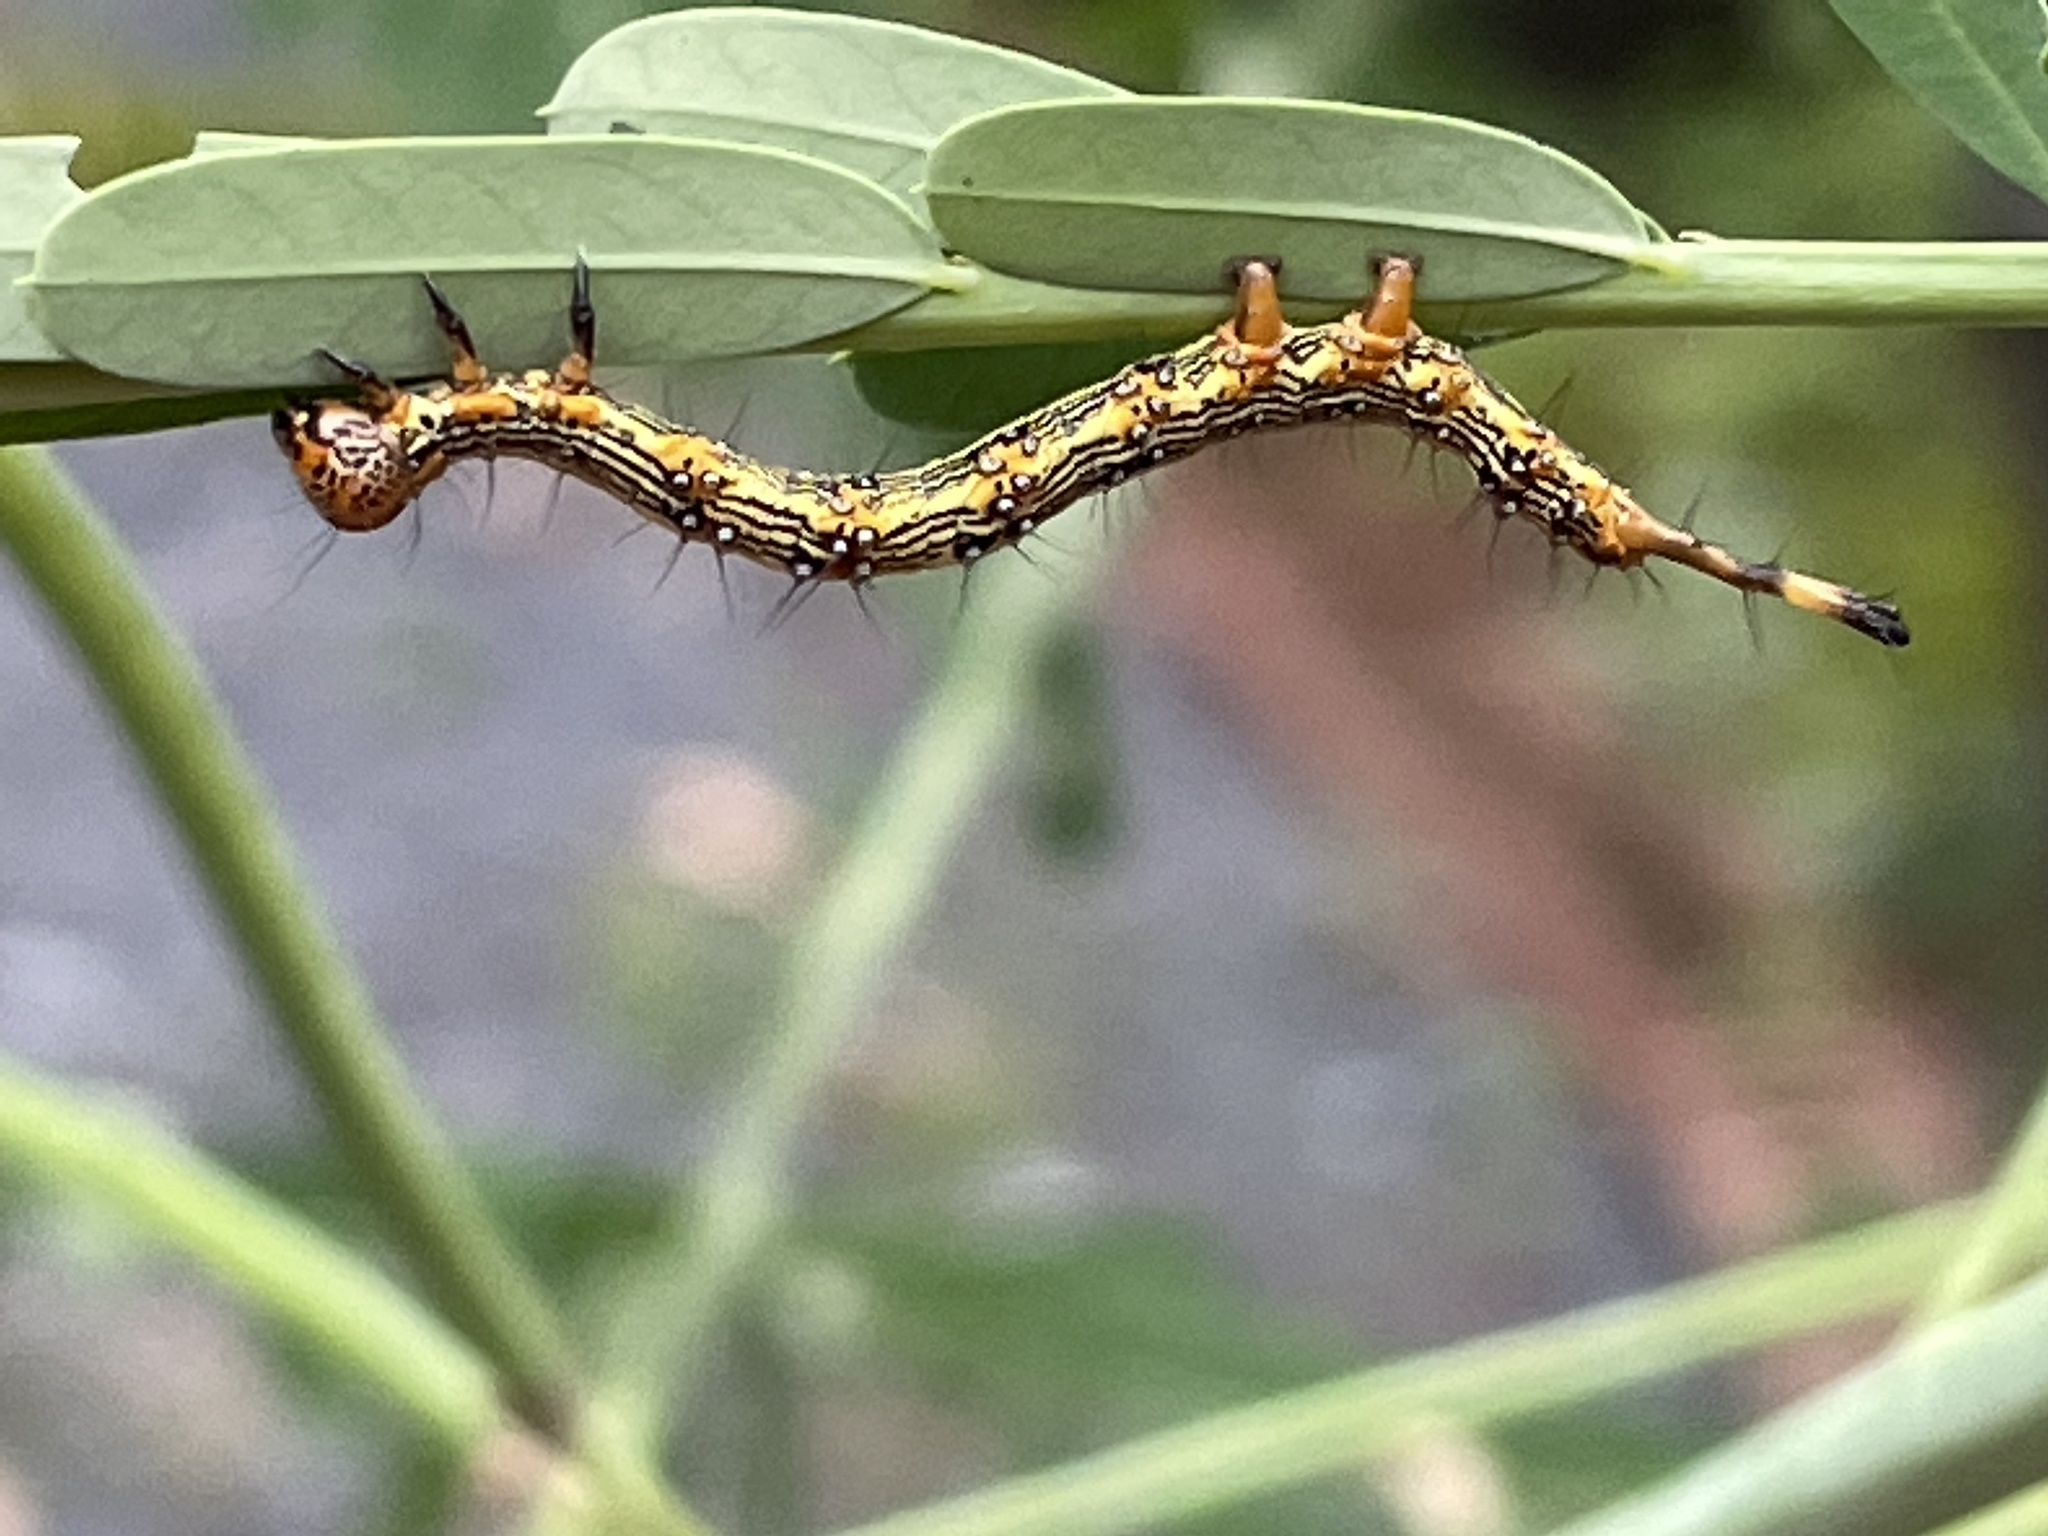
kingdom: Animalia
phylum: Arthropoda
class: Insecta
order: Lepidoptera
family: Erebidae
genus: Selenisa
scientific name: Selenisa sueroides
